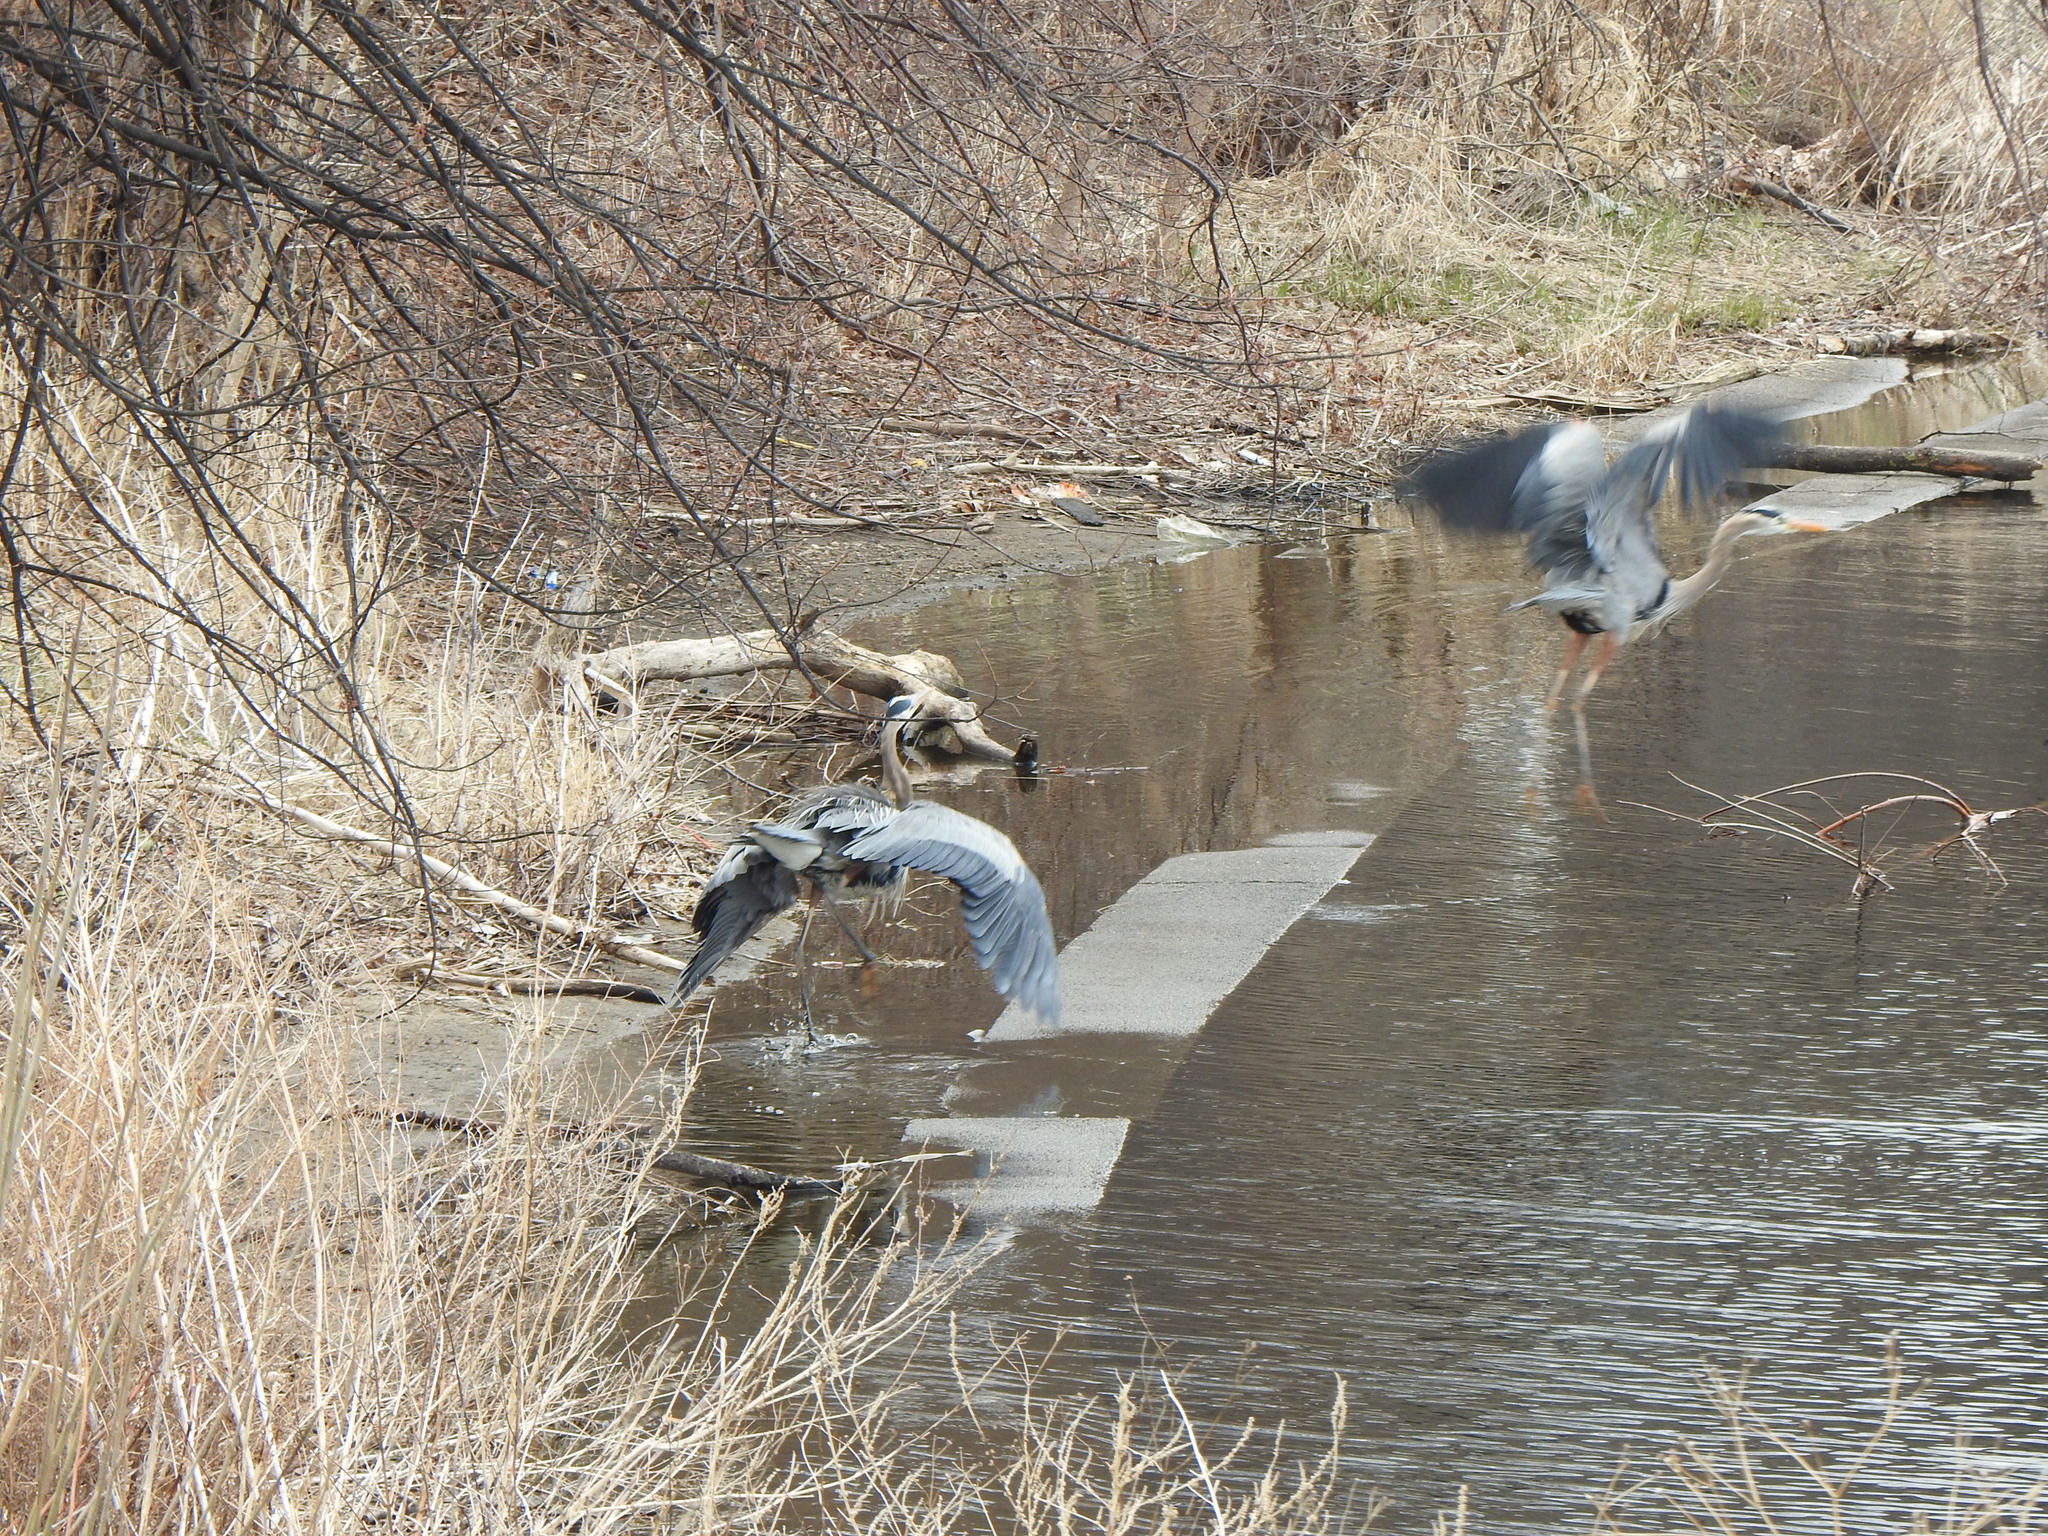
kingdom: Animalia
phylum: Chordata
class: Aves
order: Pelecaniformes
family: Ardeidae
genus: Ardea
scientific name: Ardea herodias
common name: Great blue heron
